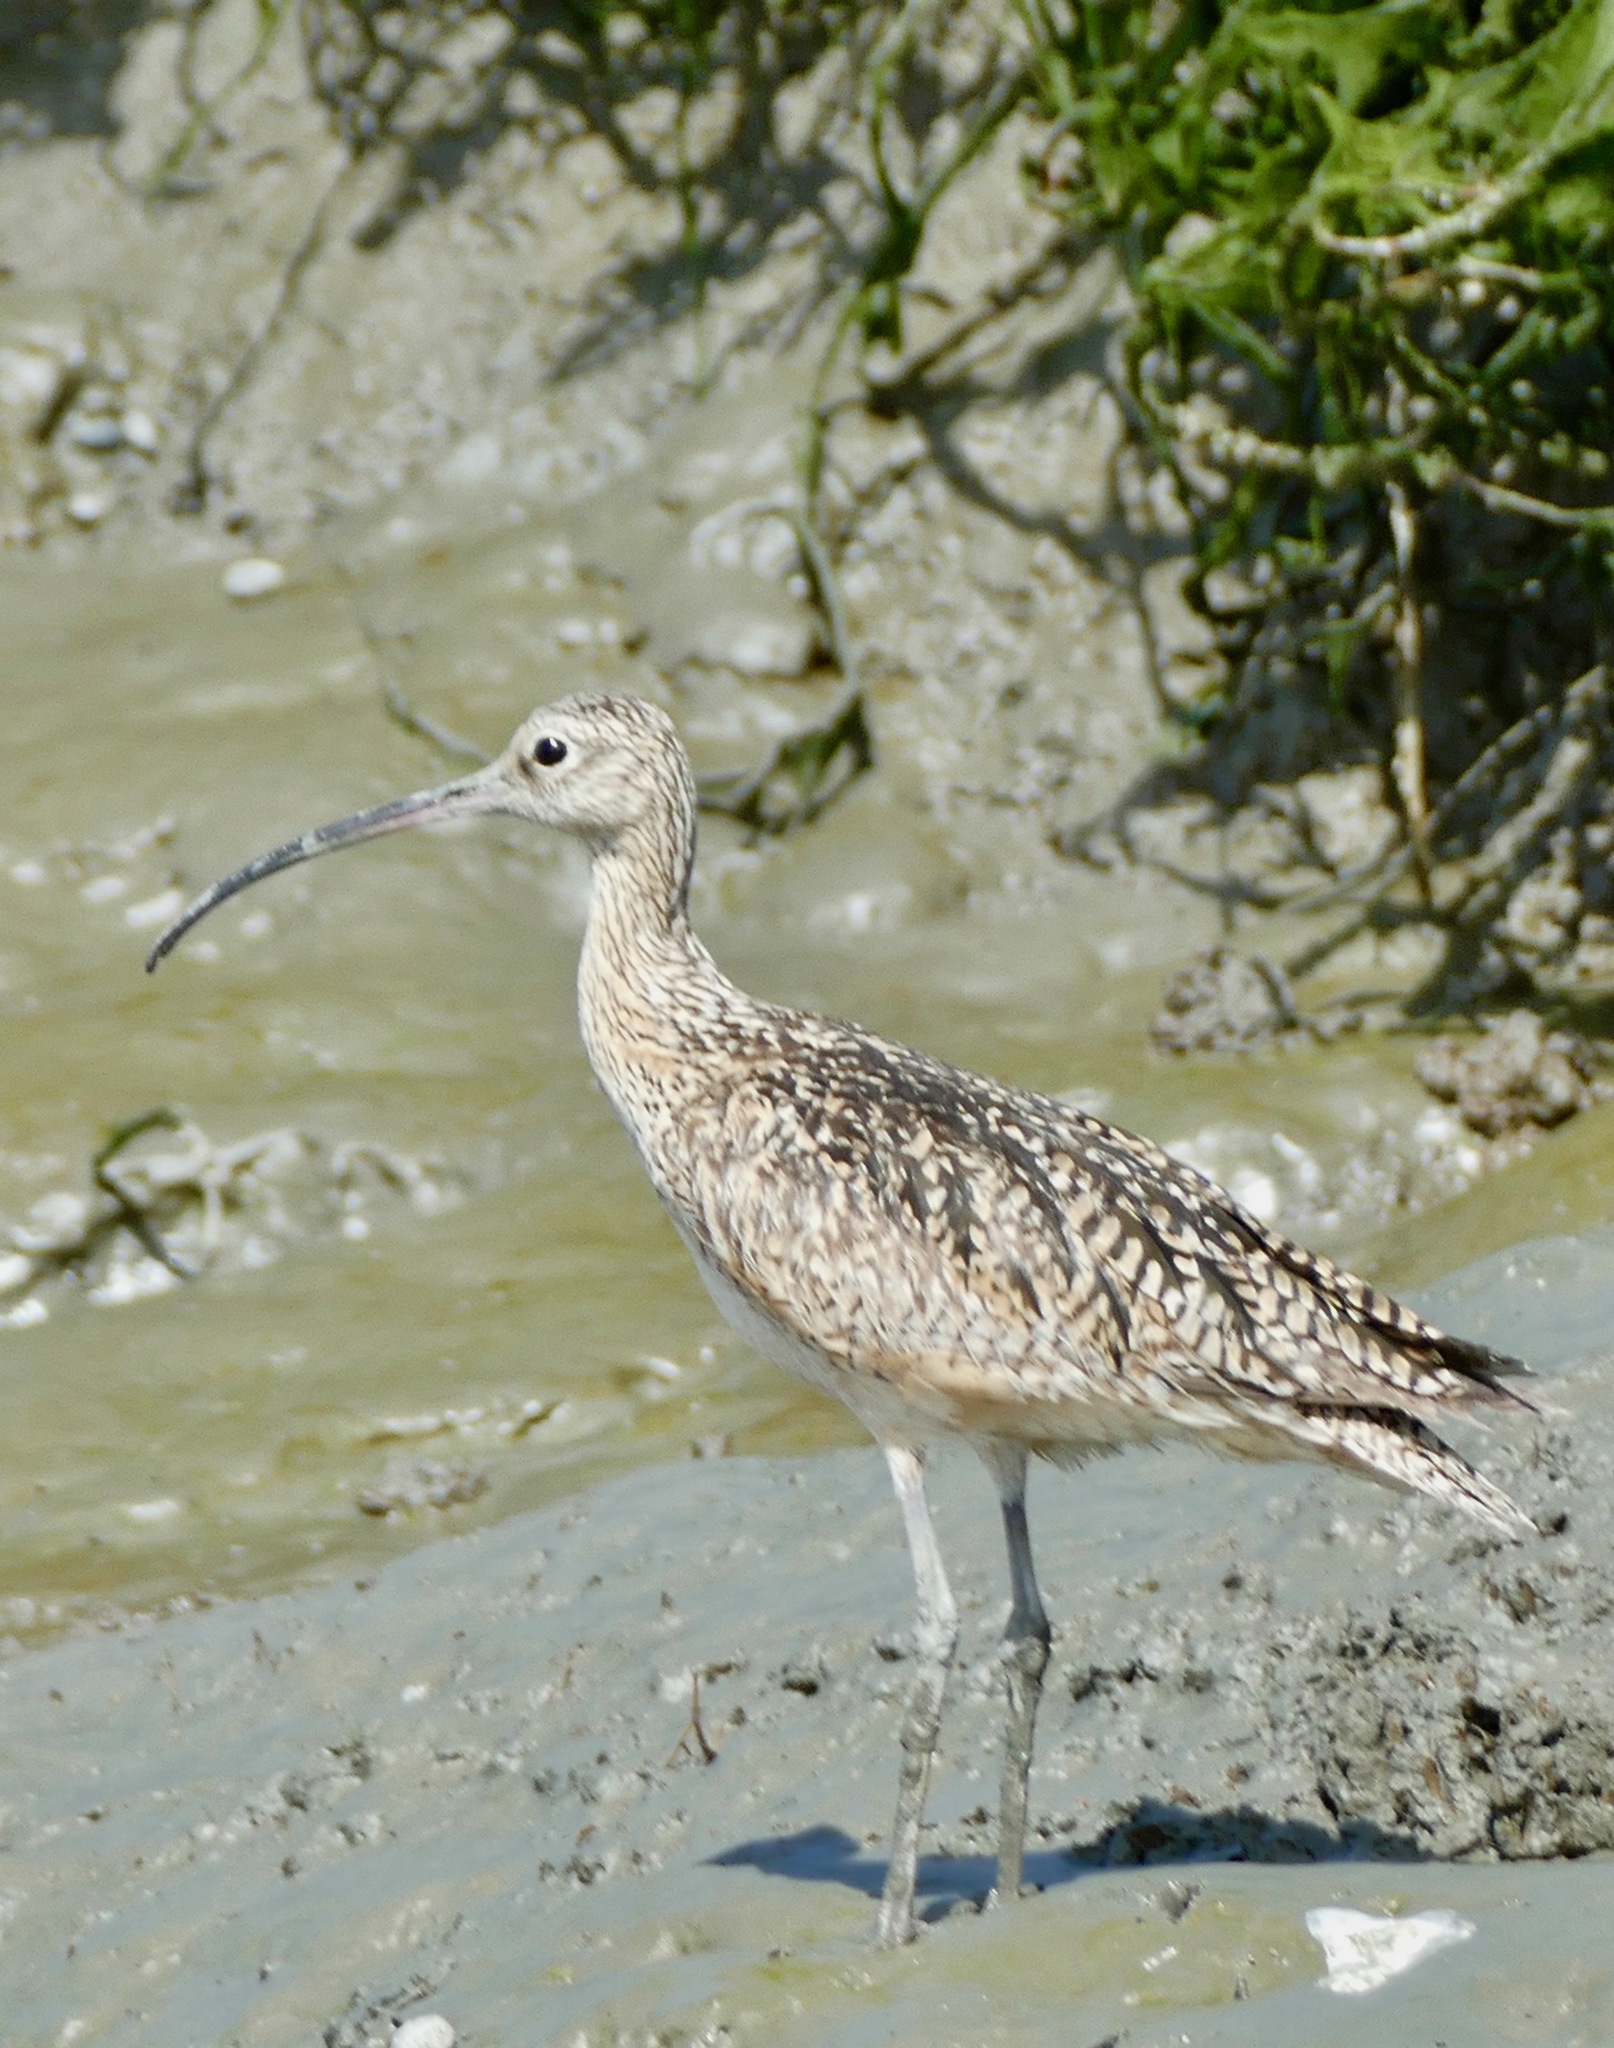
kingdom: Animalia
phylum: Chordata
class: Aves
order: Charadriiformes
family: Scolopacidae
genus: Numenius
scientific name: Numenius americanus
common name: Long-billed curlew
